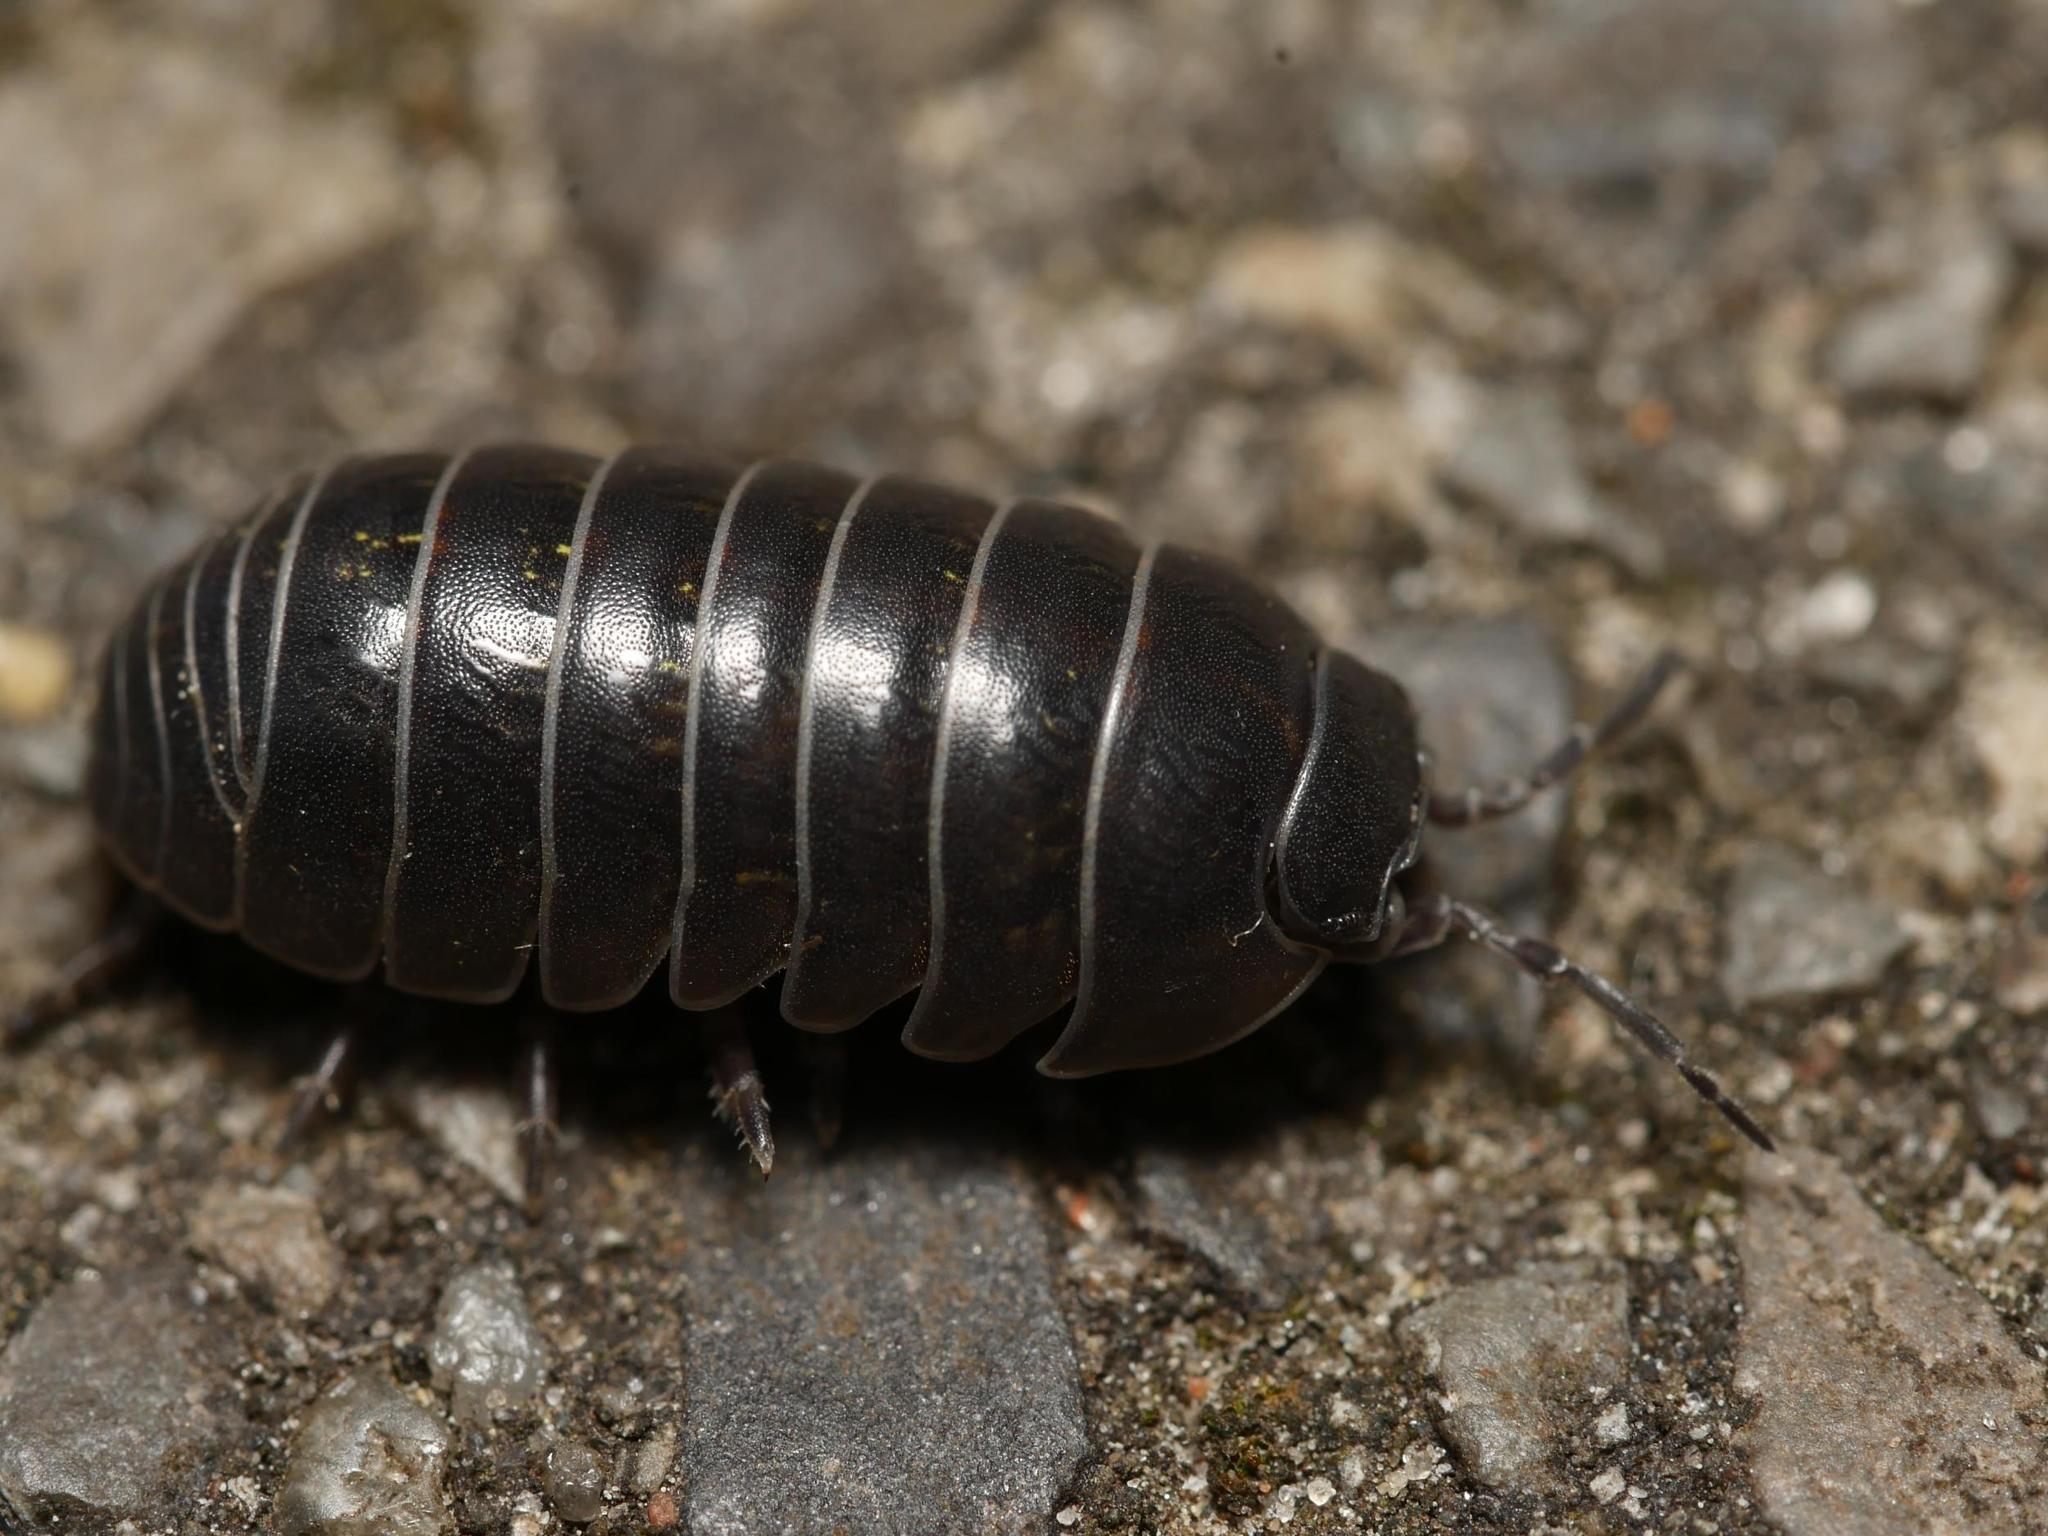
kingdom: Animalia
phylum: Arthropoda
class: Malacostraca
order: Isopoda
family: Armadillidiidae
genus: Armadillidium
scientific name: Armadillidium vulgare
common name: Common pill woodlouse
